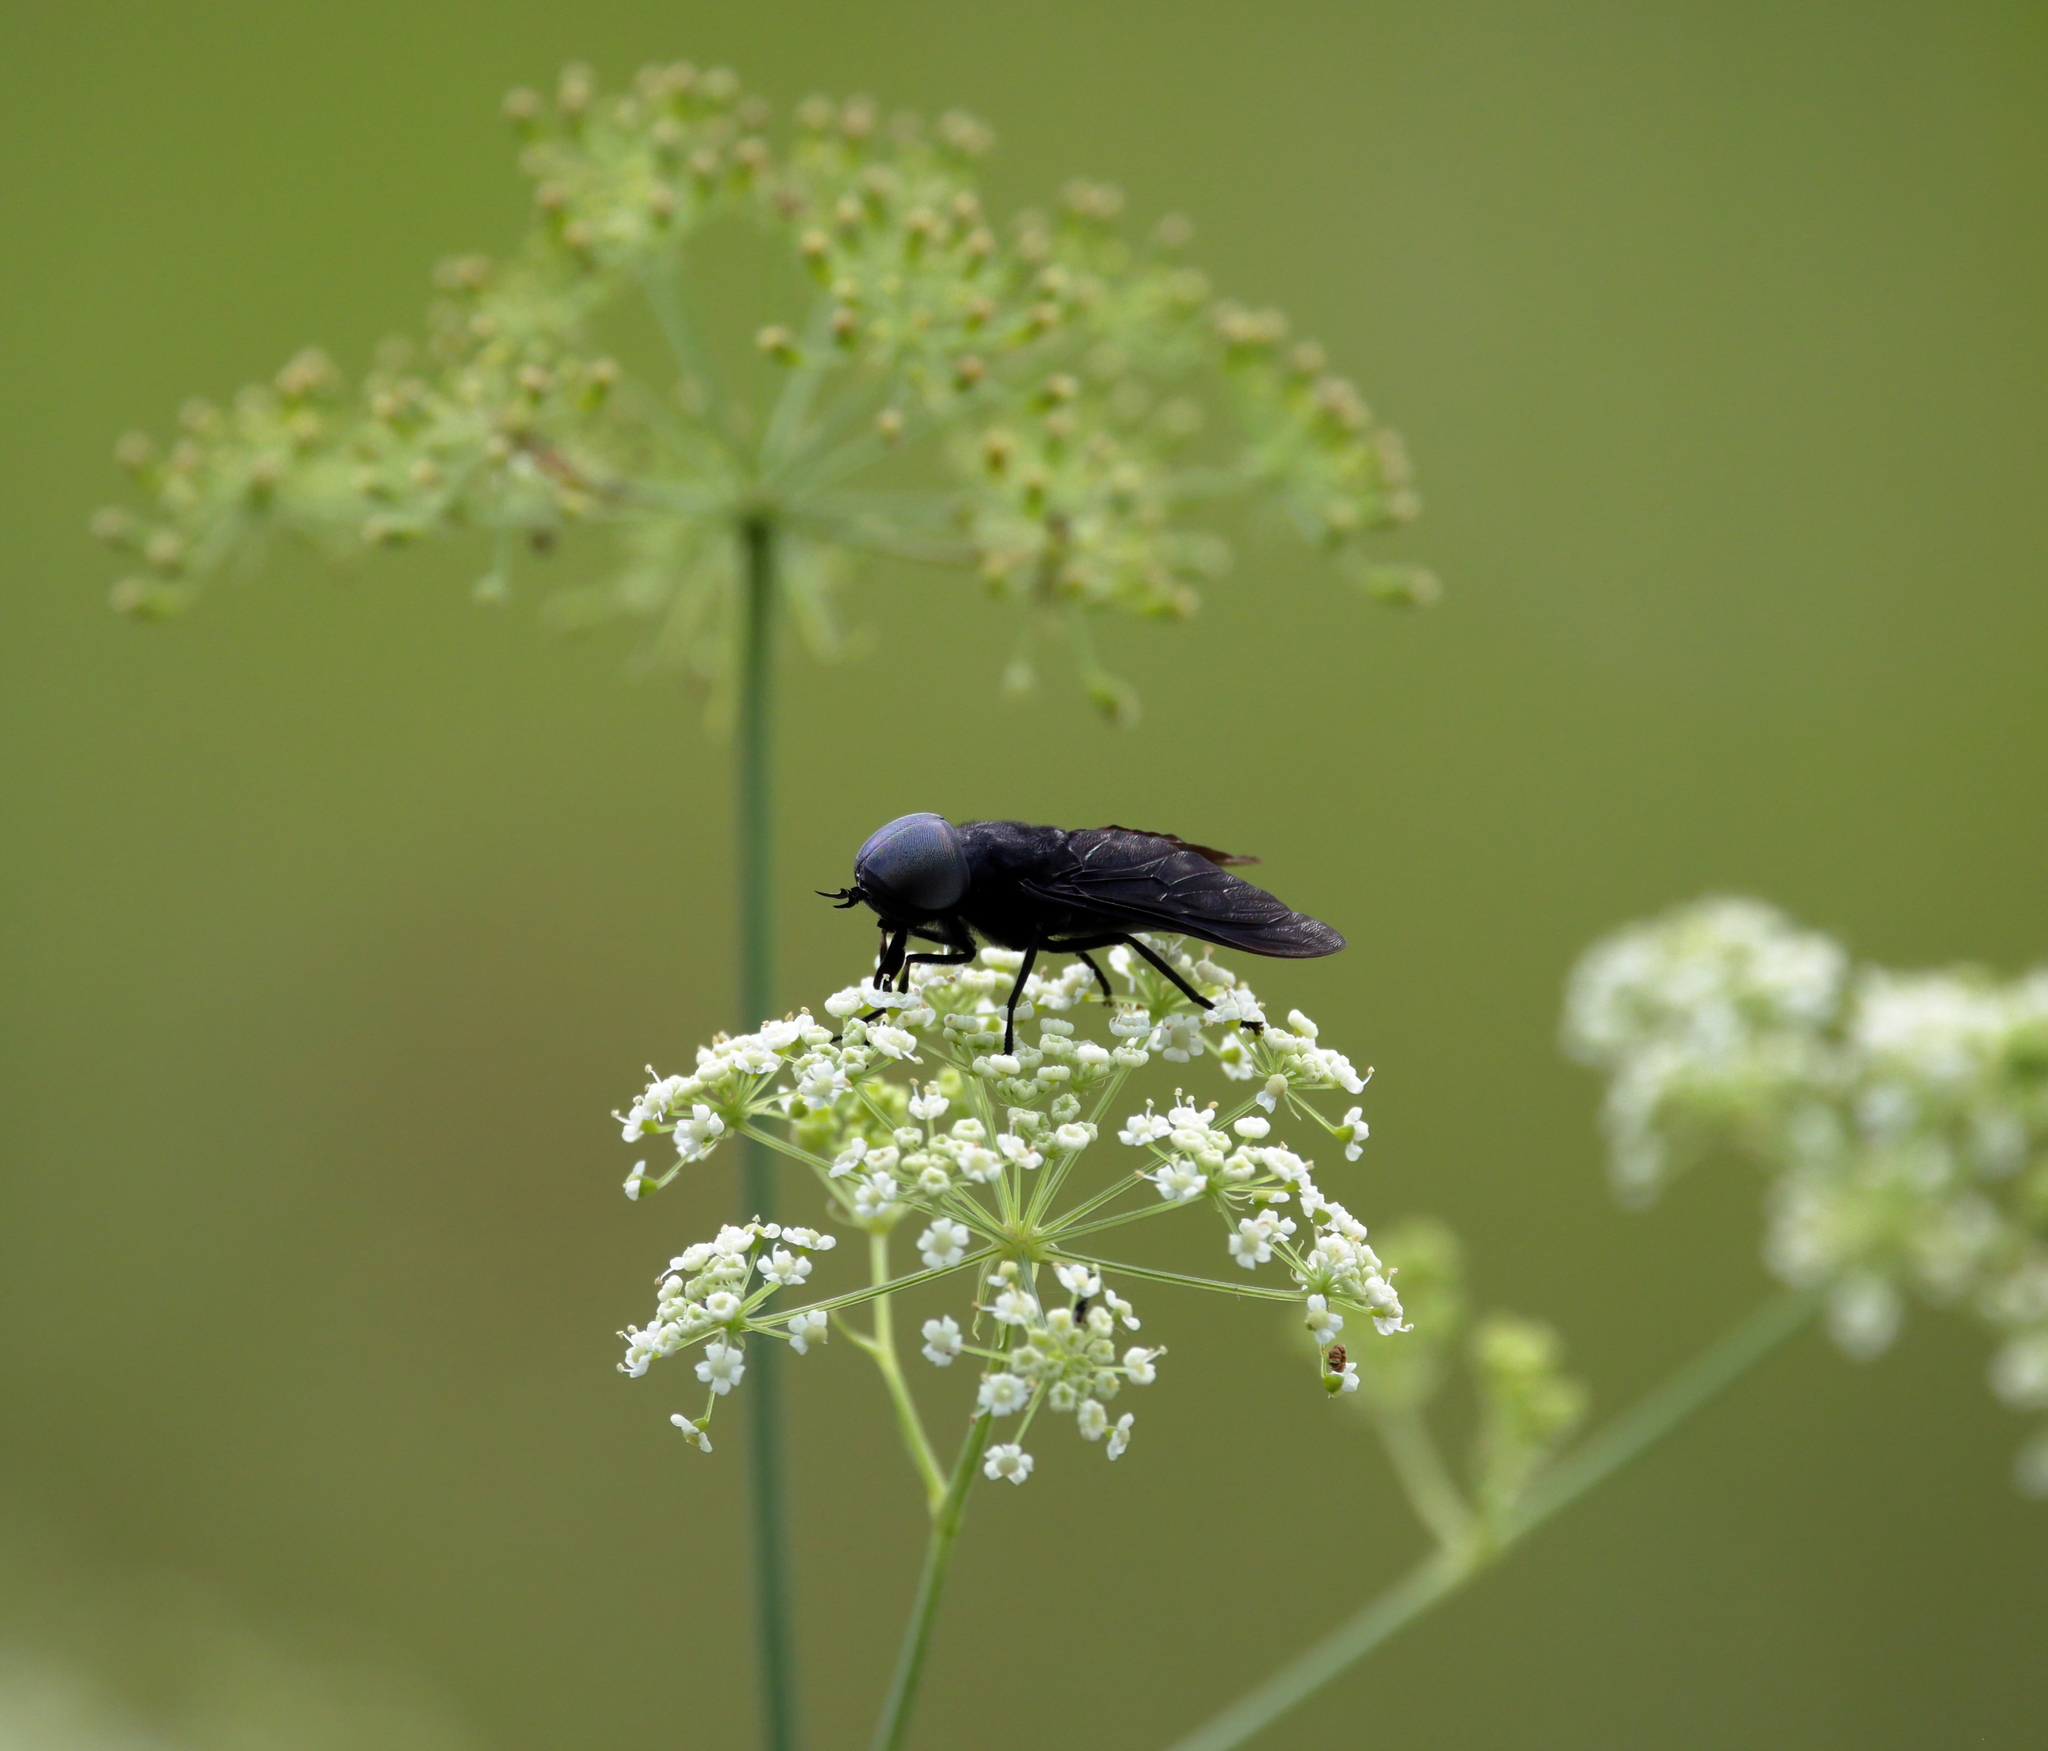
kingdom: Animalia
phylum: Arthropoda
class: Insecta
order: Diptera
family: Tabanidae
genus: Tabanus
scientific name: Tabanus atratus
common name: Black horse fly
